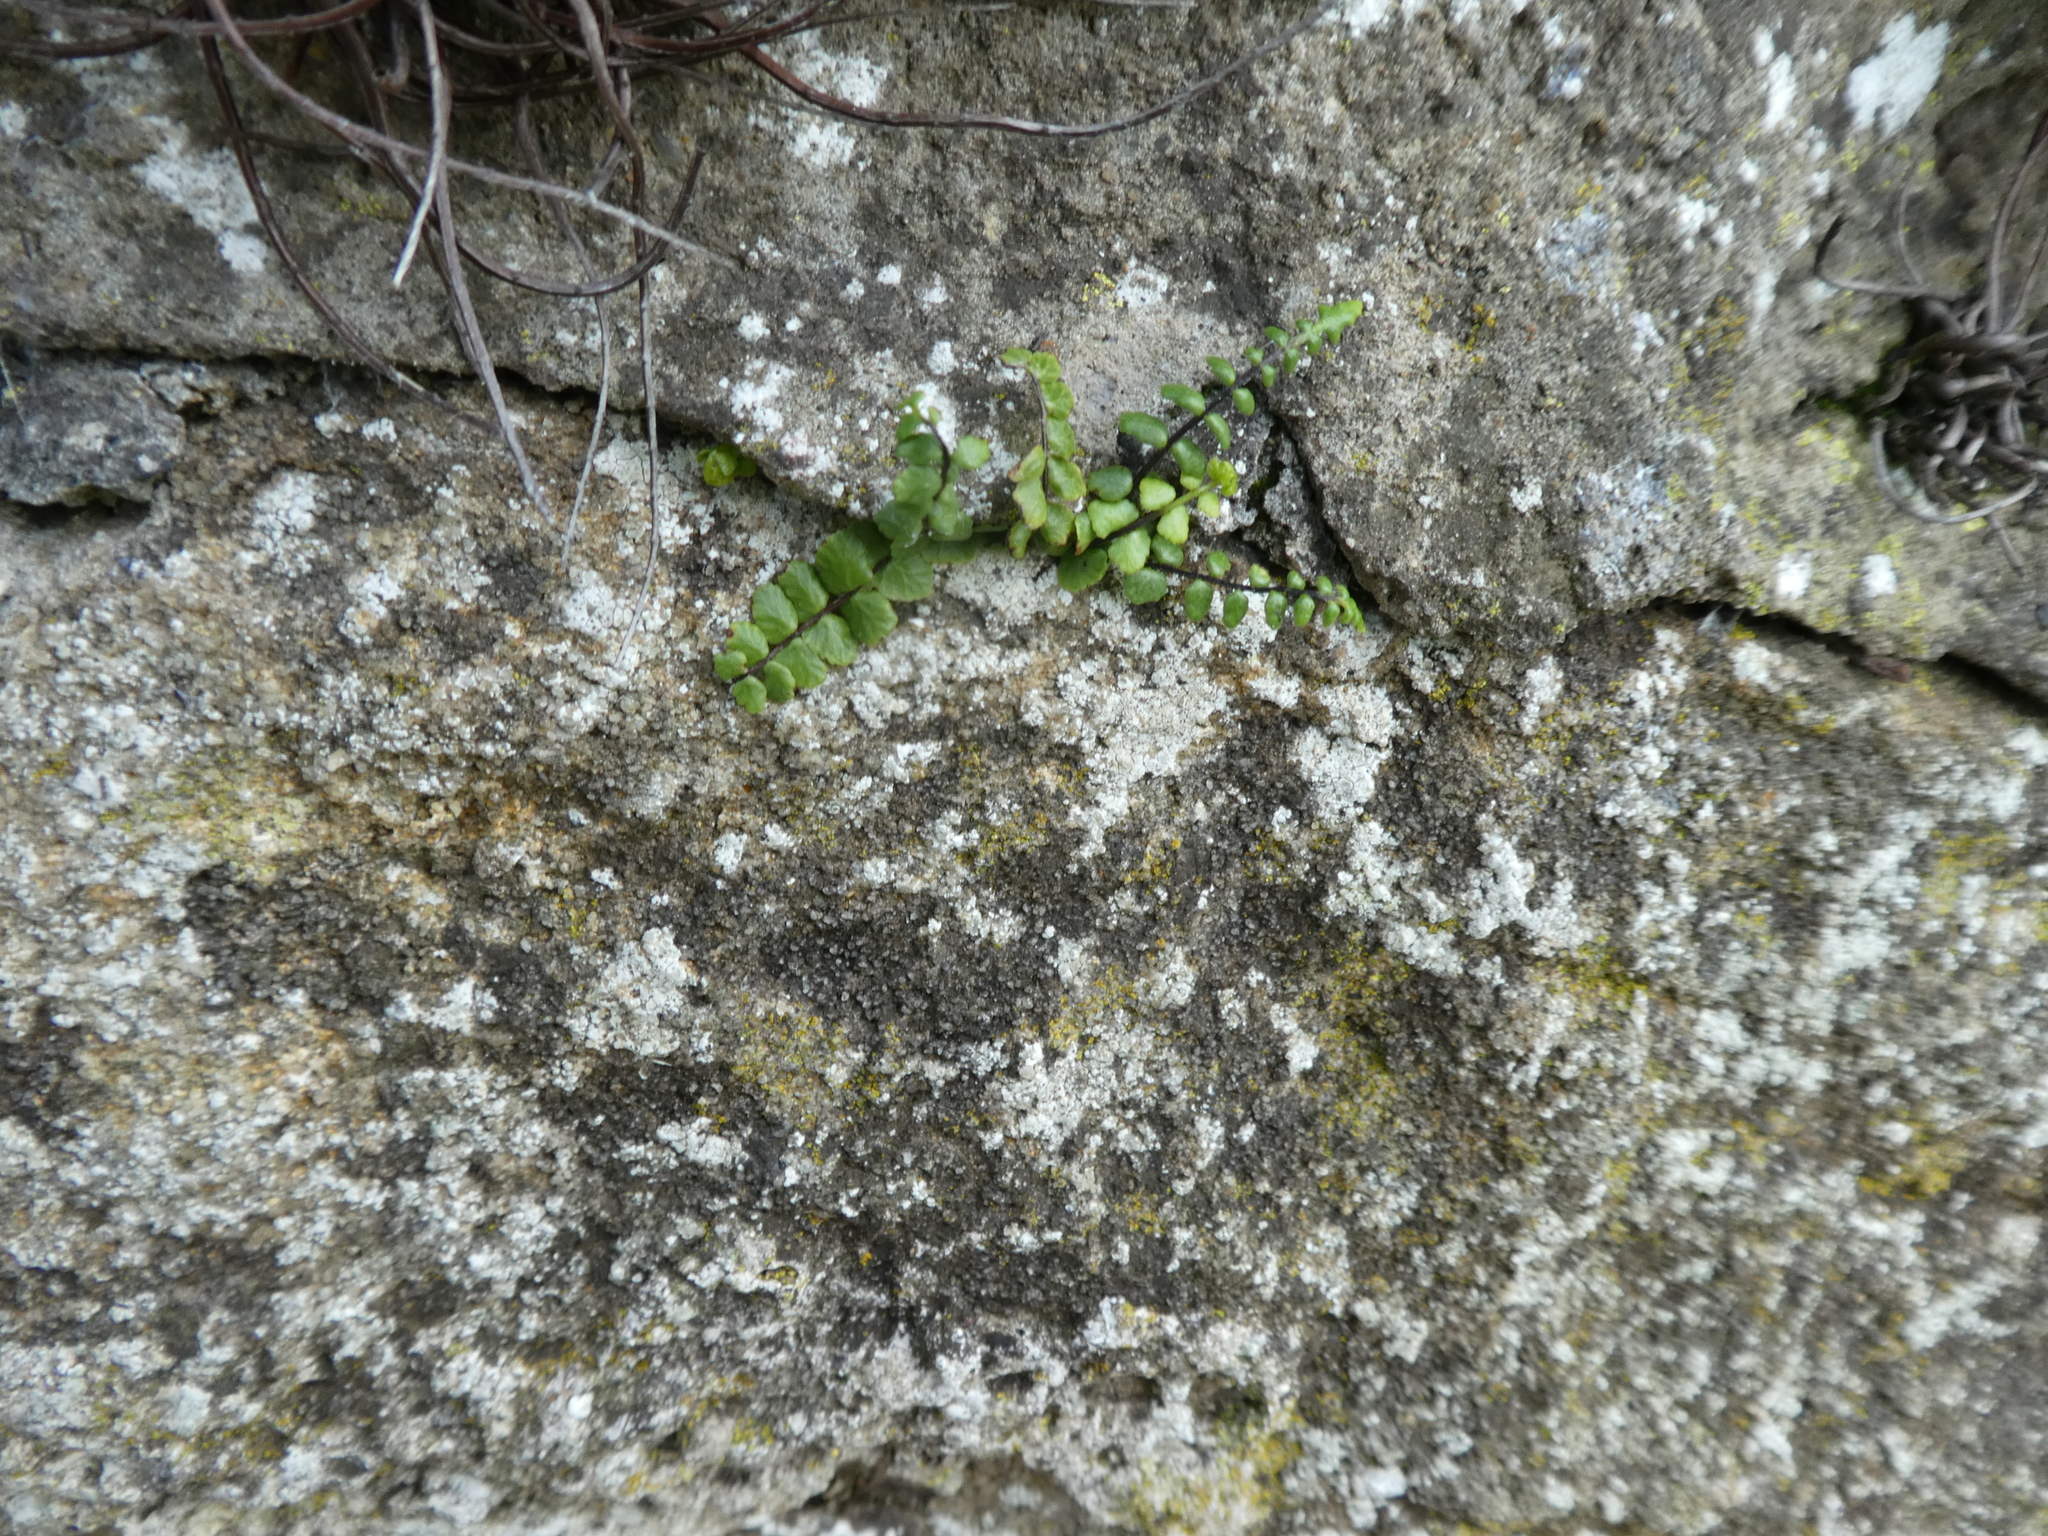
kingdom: Plantae
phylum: Tracheophyta
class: Polypodiopsida
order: Polypodiales
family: Aspleniaceae
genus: Asplenium
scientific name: Asplenium trichomanes
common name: Maidenhair spleenwort
